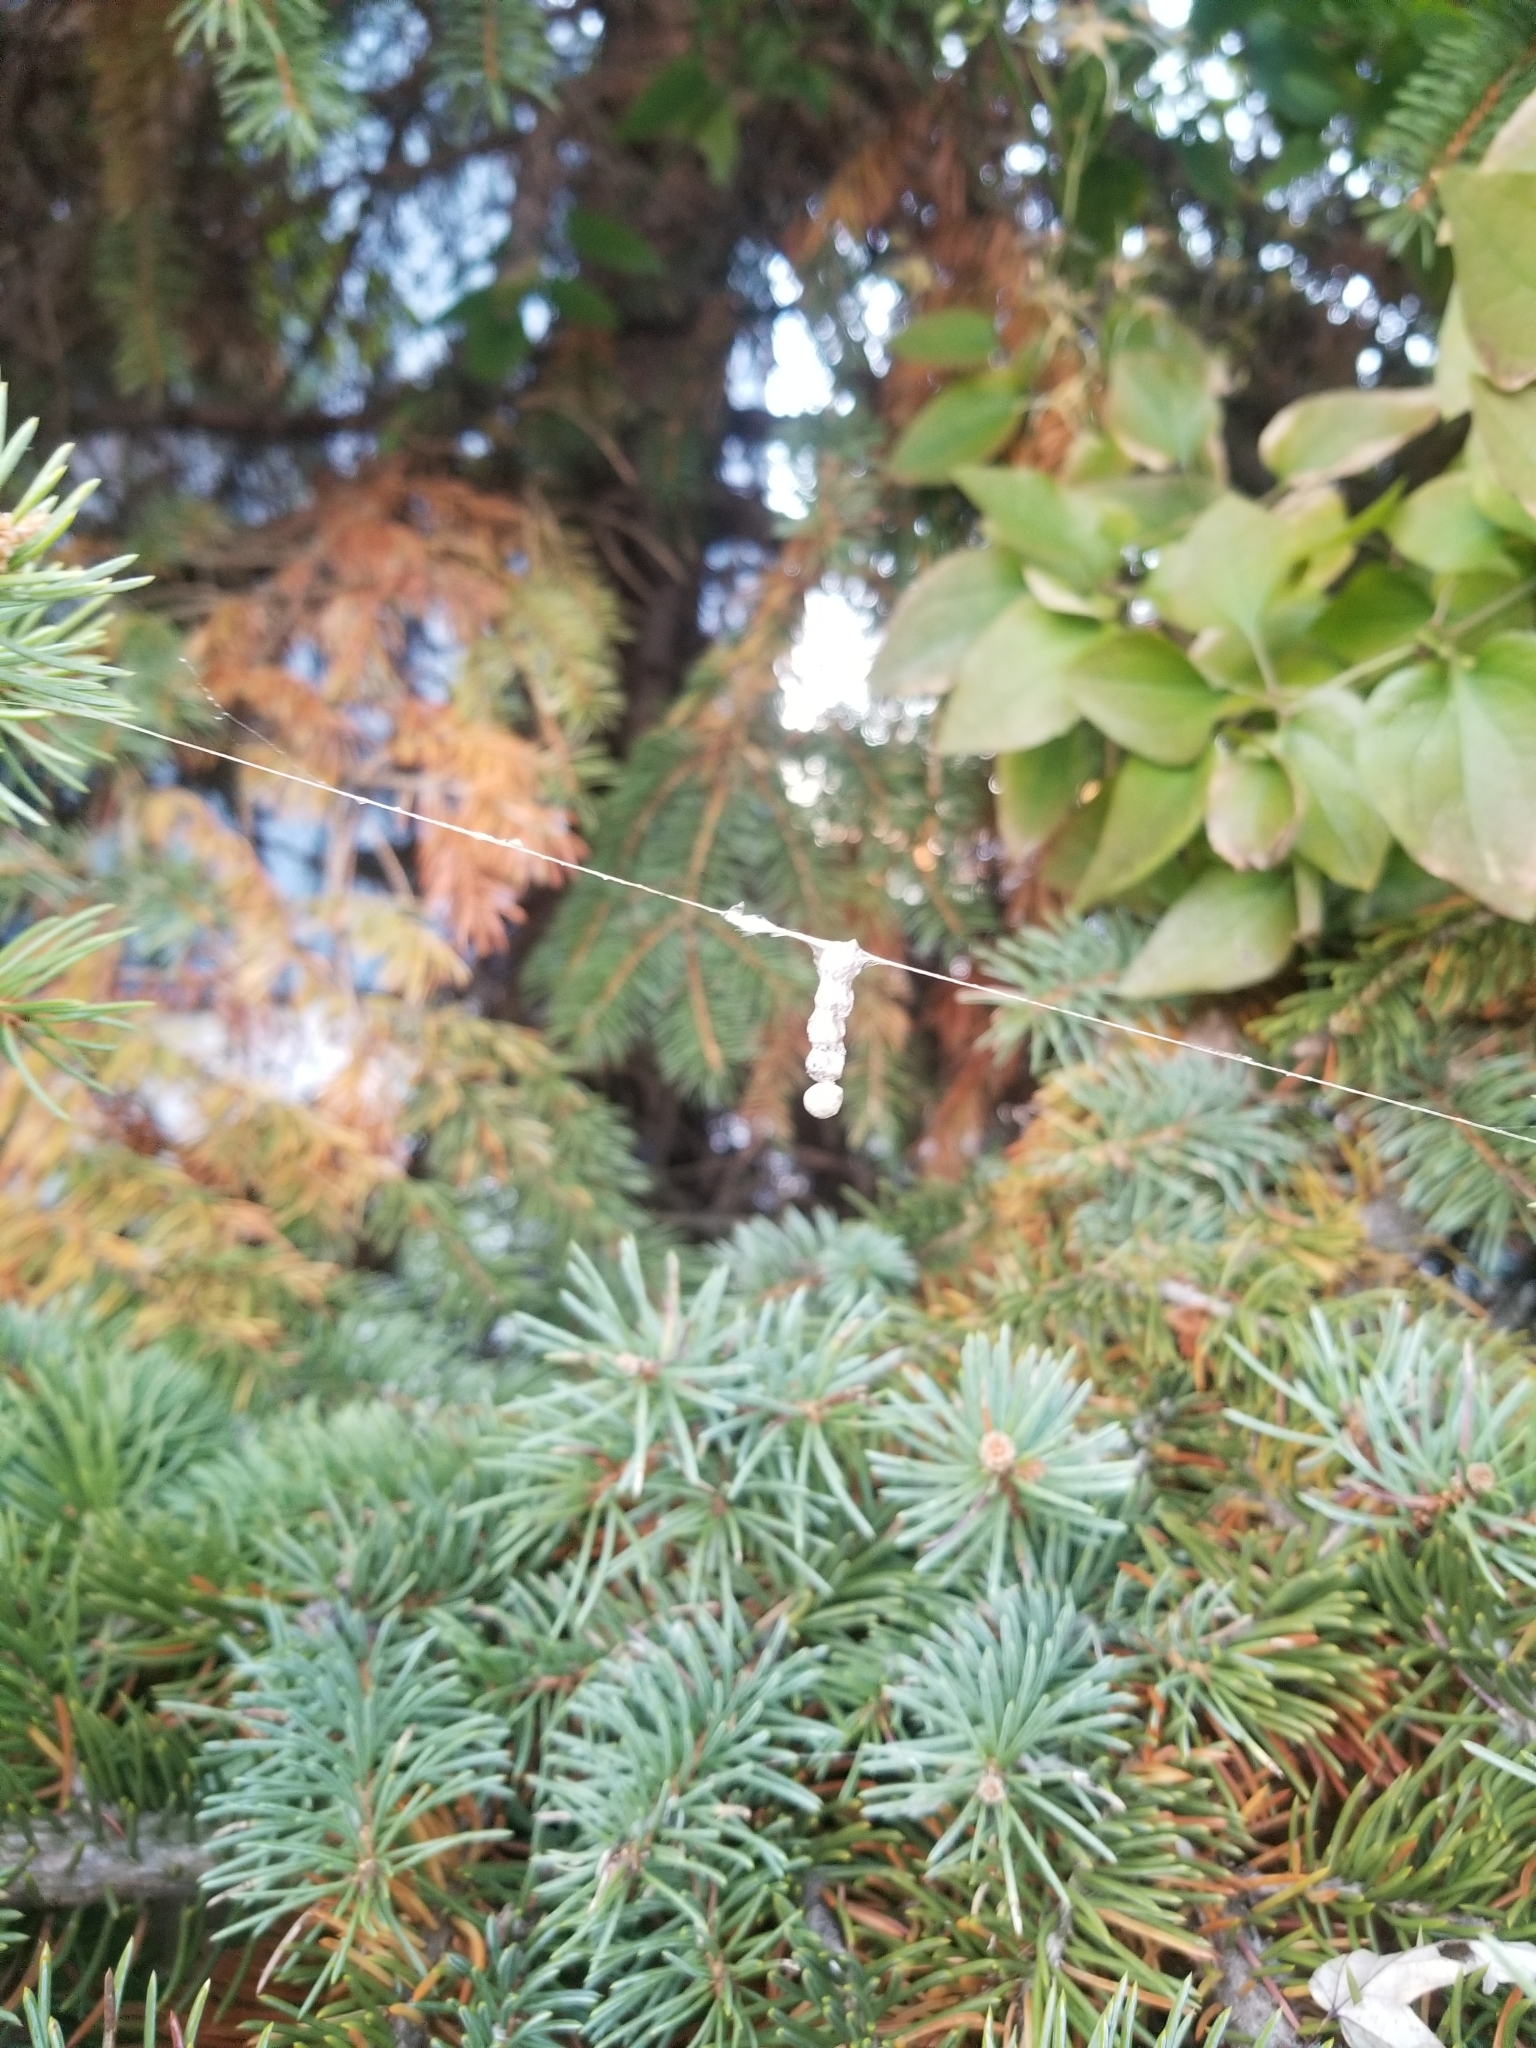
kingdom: Animalia
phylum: Arthropoda
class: Arachnida
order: Araneae
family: Araneidae
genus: Mecynogea
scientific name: Mecynogea lemniscata
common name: Orb weavers
